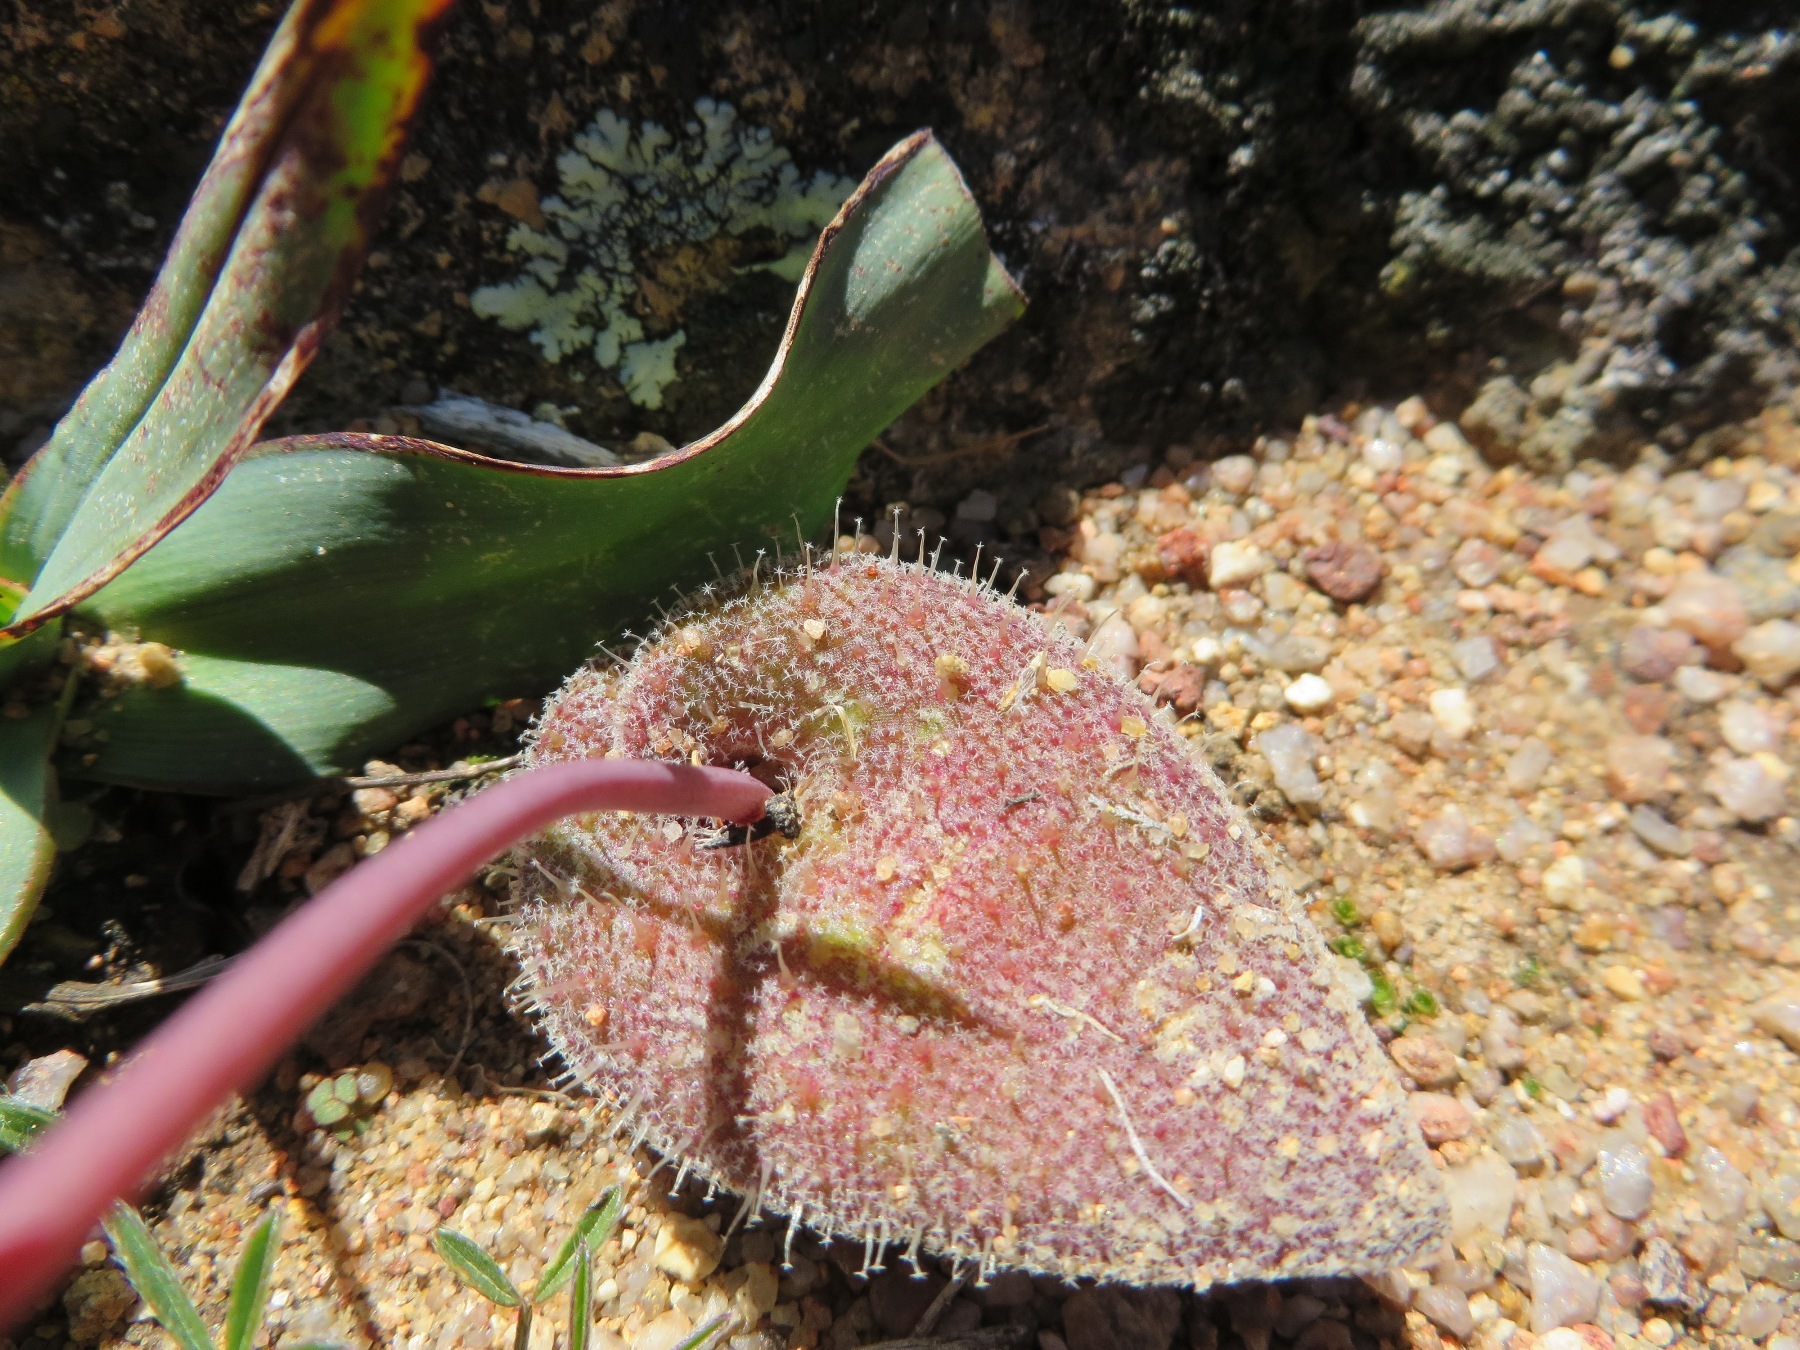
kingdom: Plantae
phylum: Tracheophyta
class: Liliopsida
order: Asparagales
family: Asparagaceae
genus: Lachenalia
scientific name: Lachenalia trichophylla
